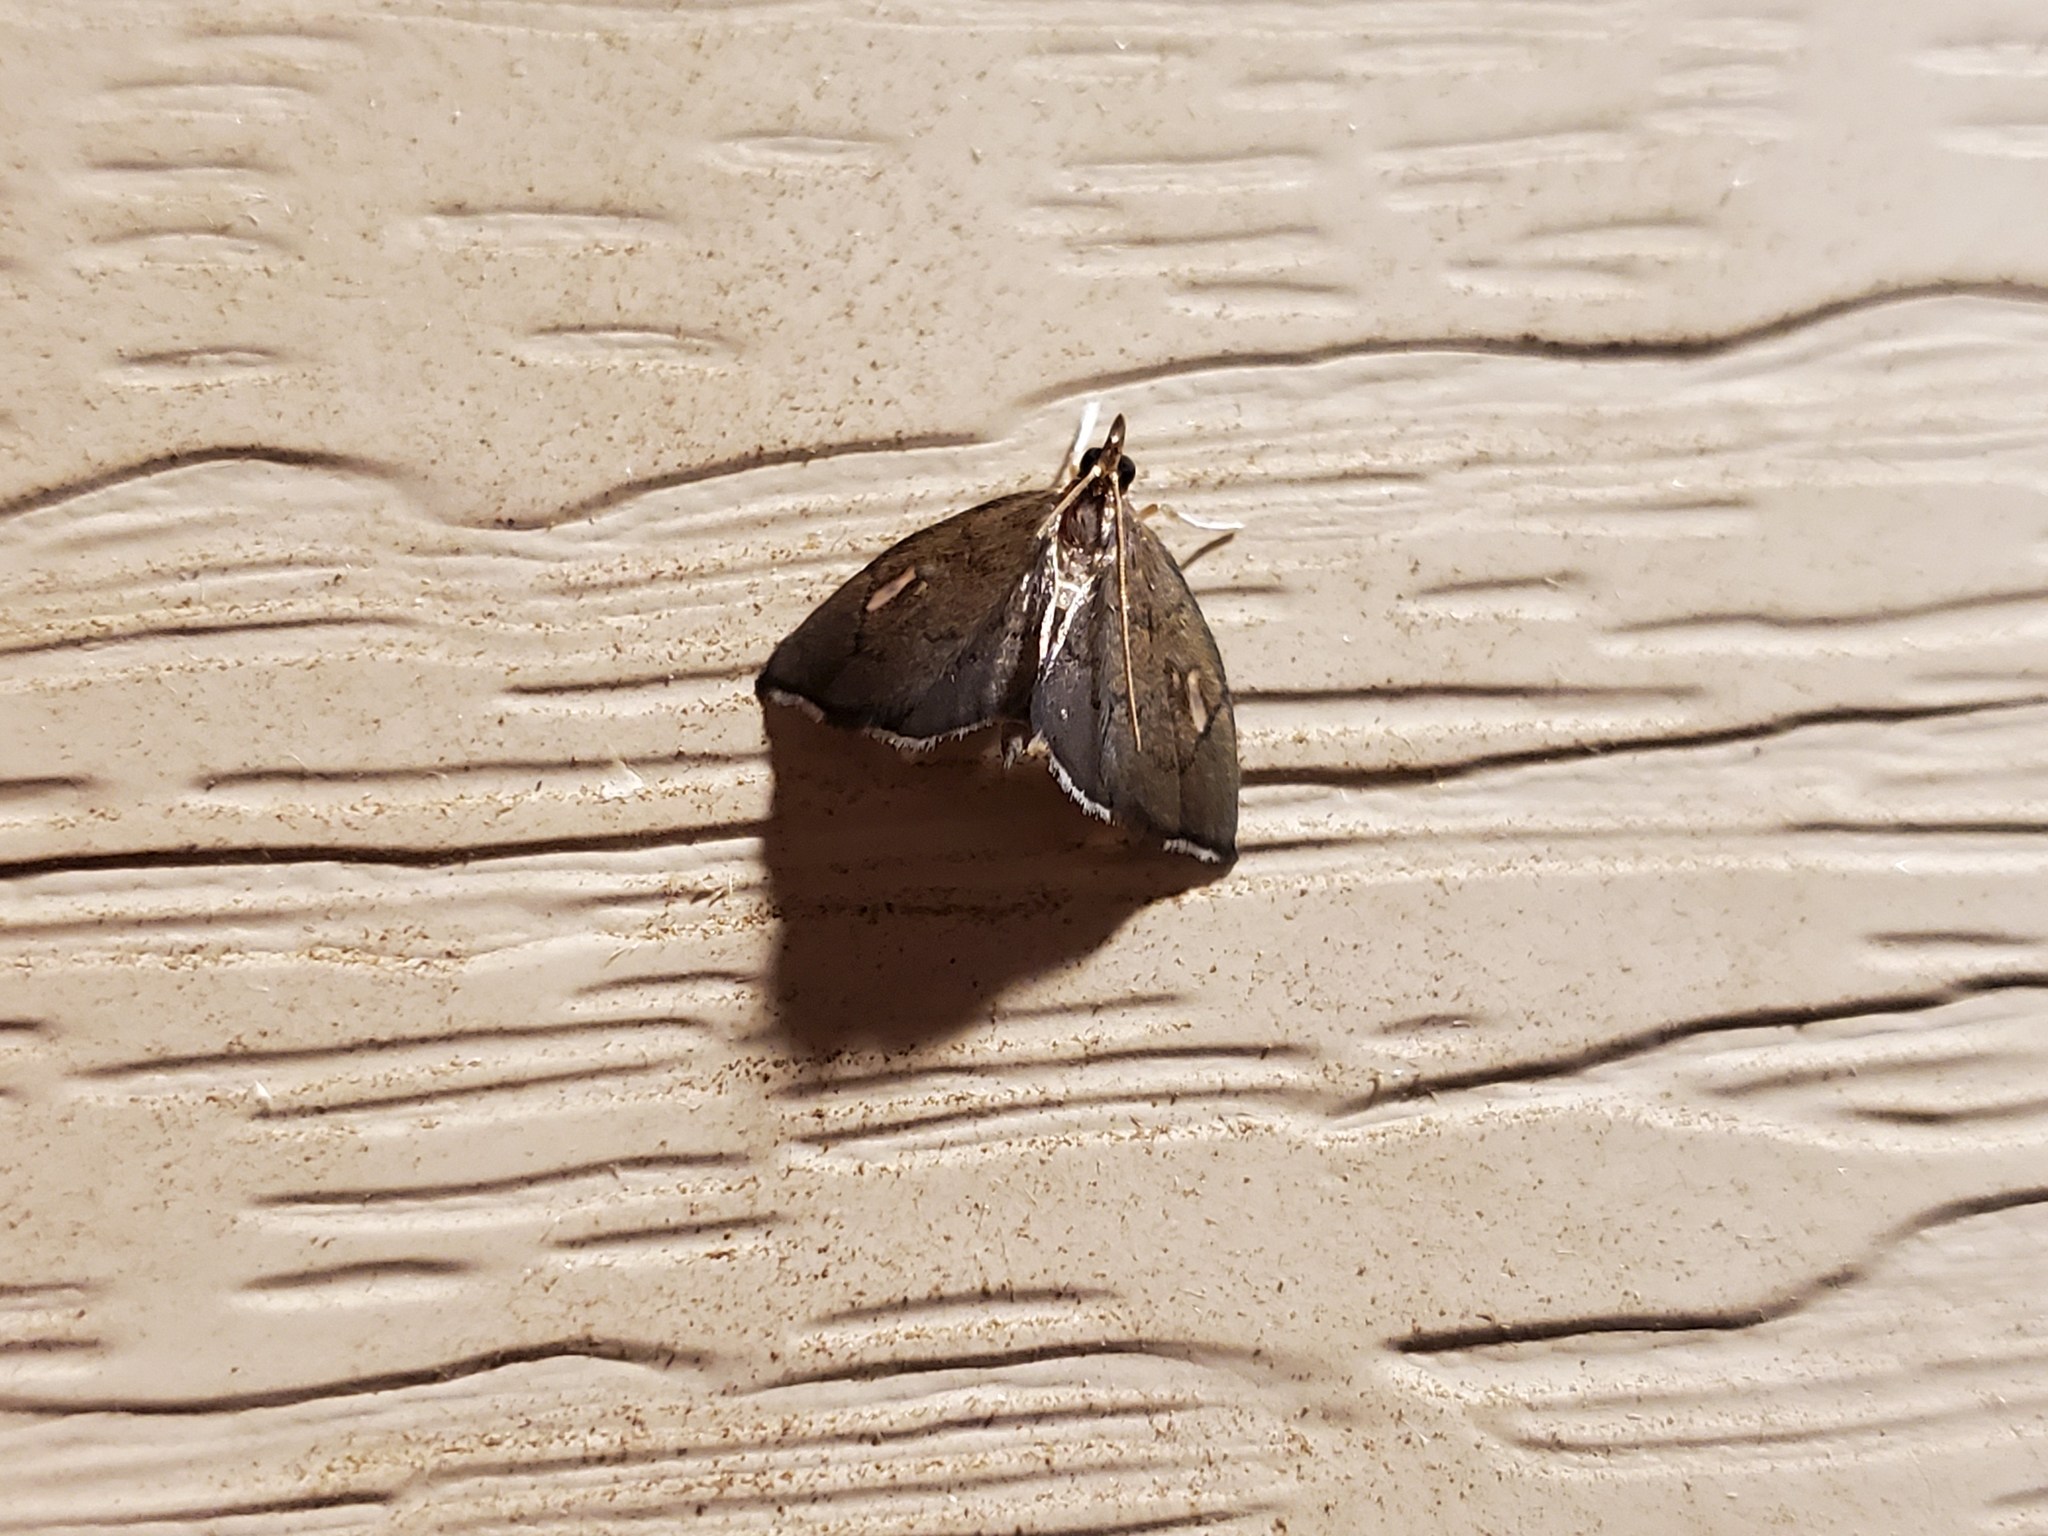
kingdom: Animalia
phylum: Arthropoda
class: Insecta
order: Lepidoptera
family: Crambidae
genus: Perispasta
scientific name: Perispasta caeculalis
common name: Titian peale's moth
